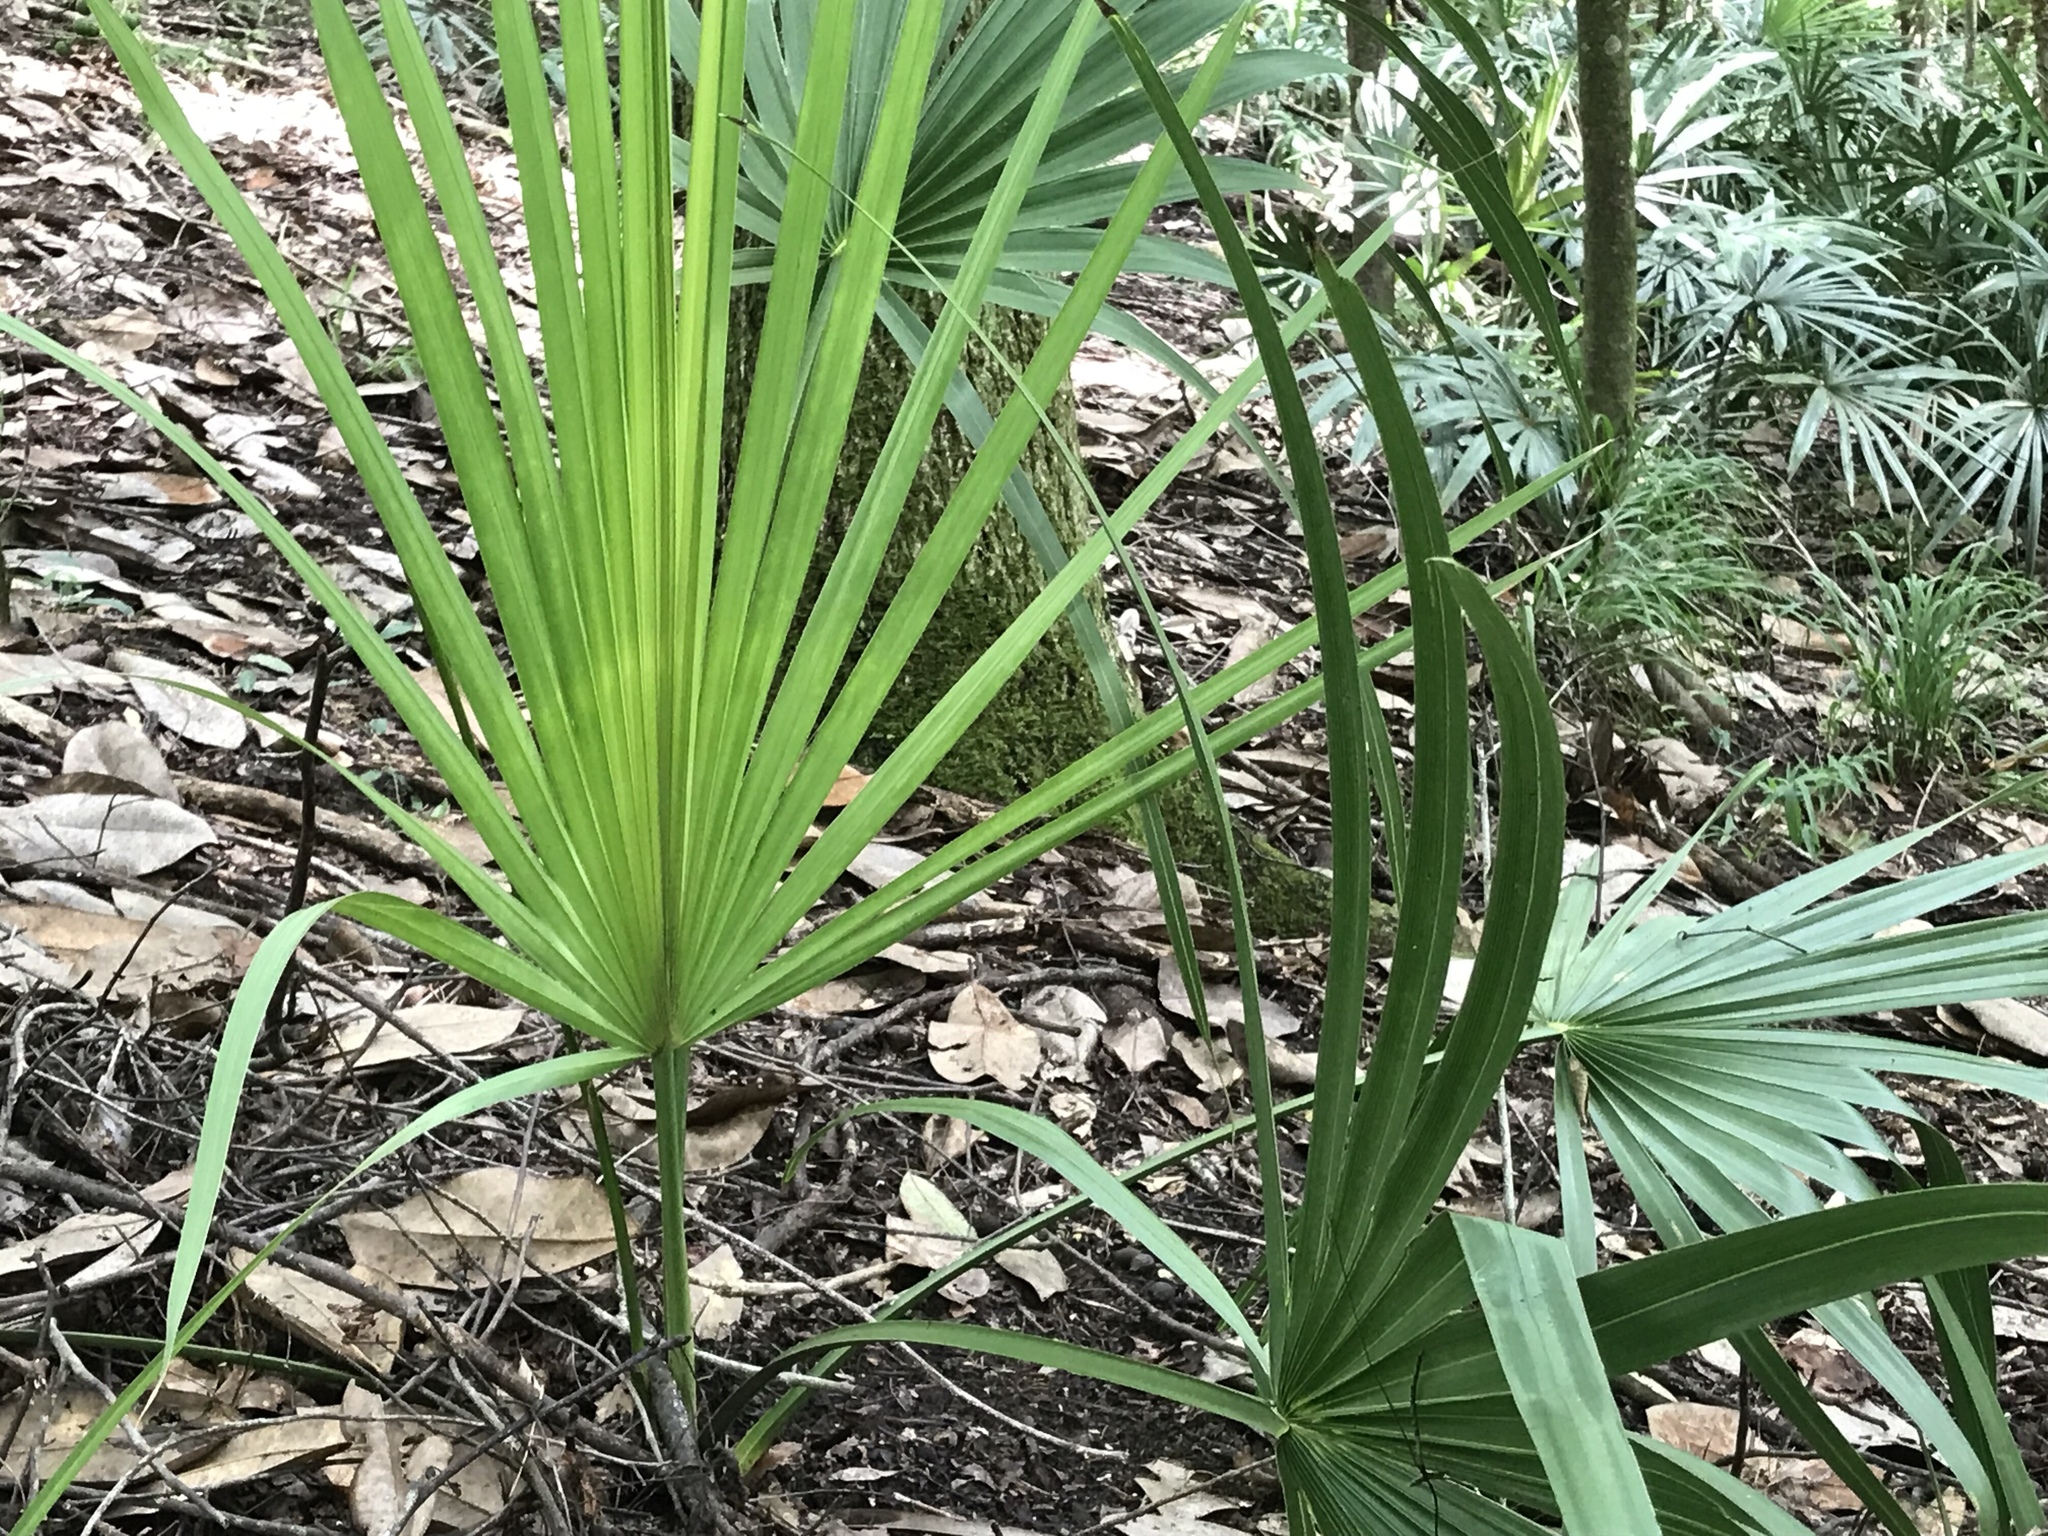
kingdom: Plantae
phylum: Tracheophyta
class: Liliopsida
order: Arecales
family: Arecaceae
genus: Sabal
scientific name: Sabal palmetto
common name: Blue palmetto
